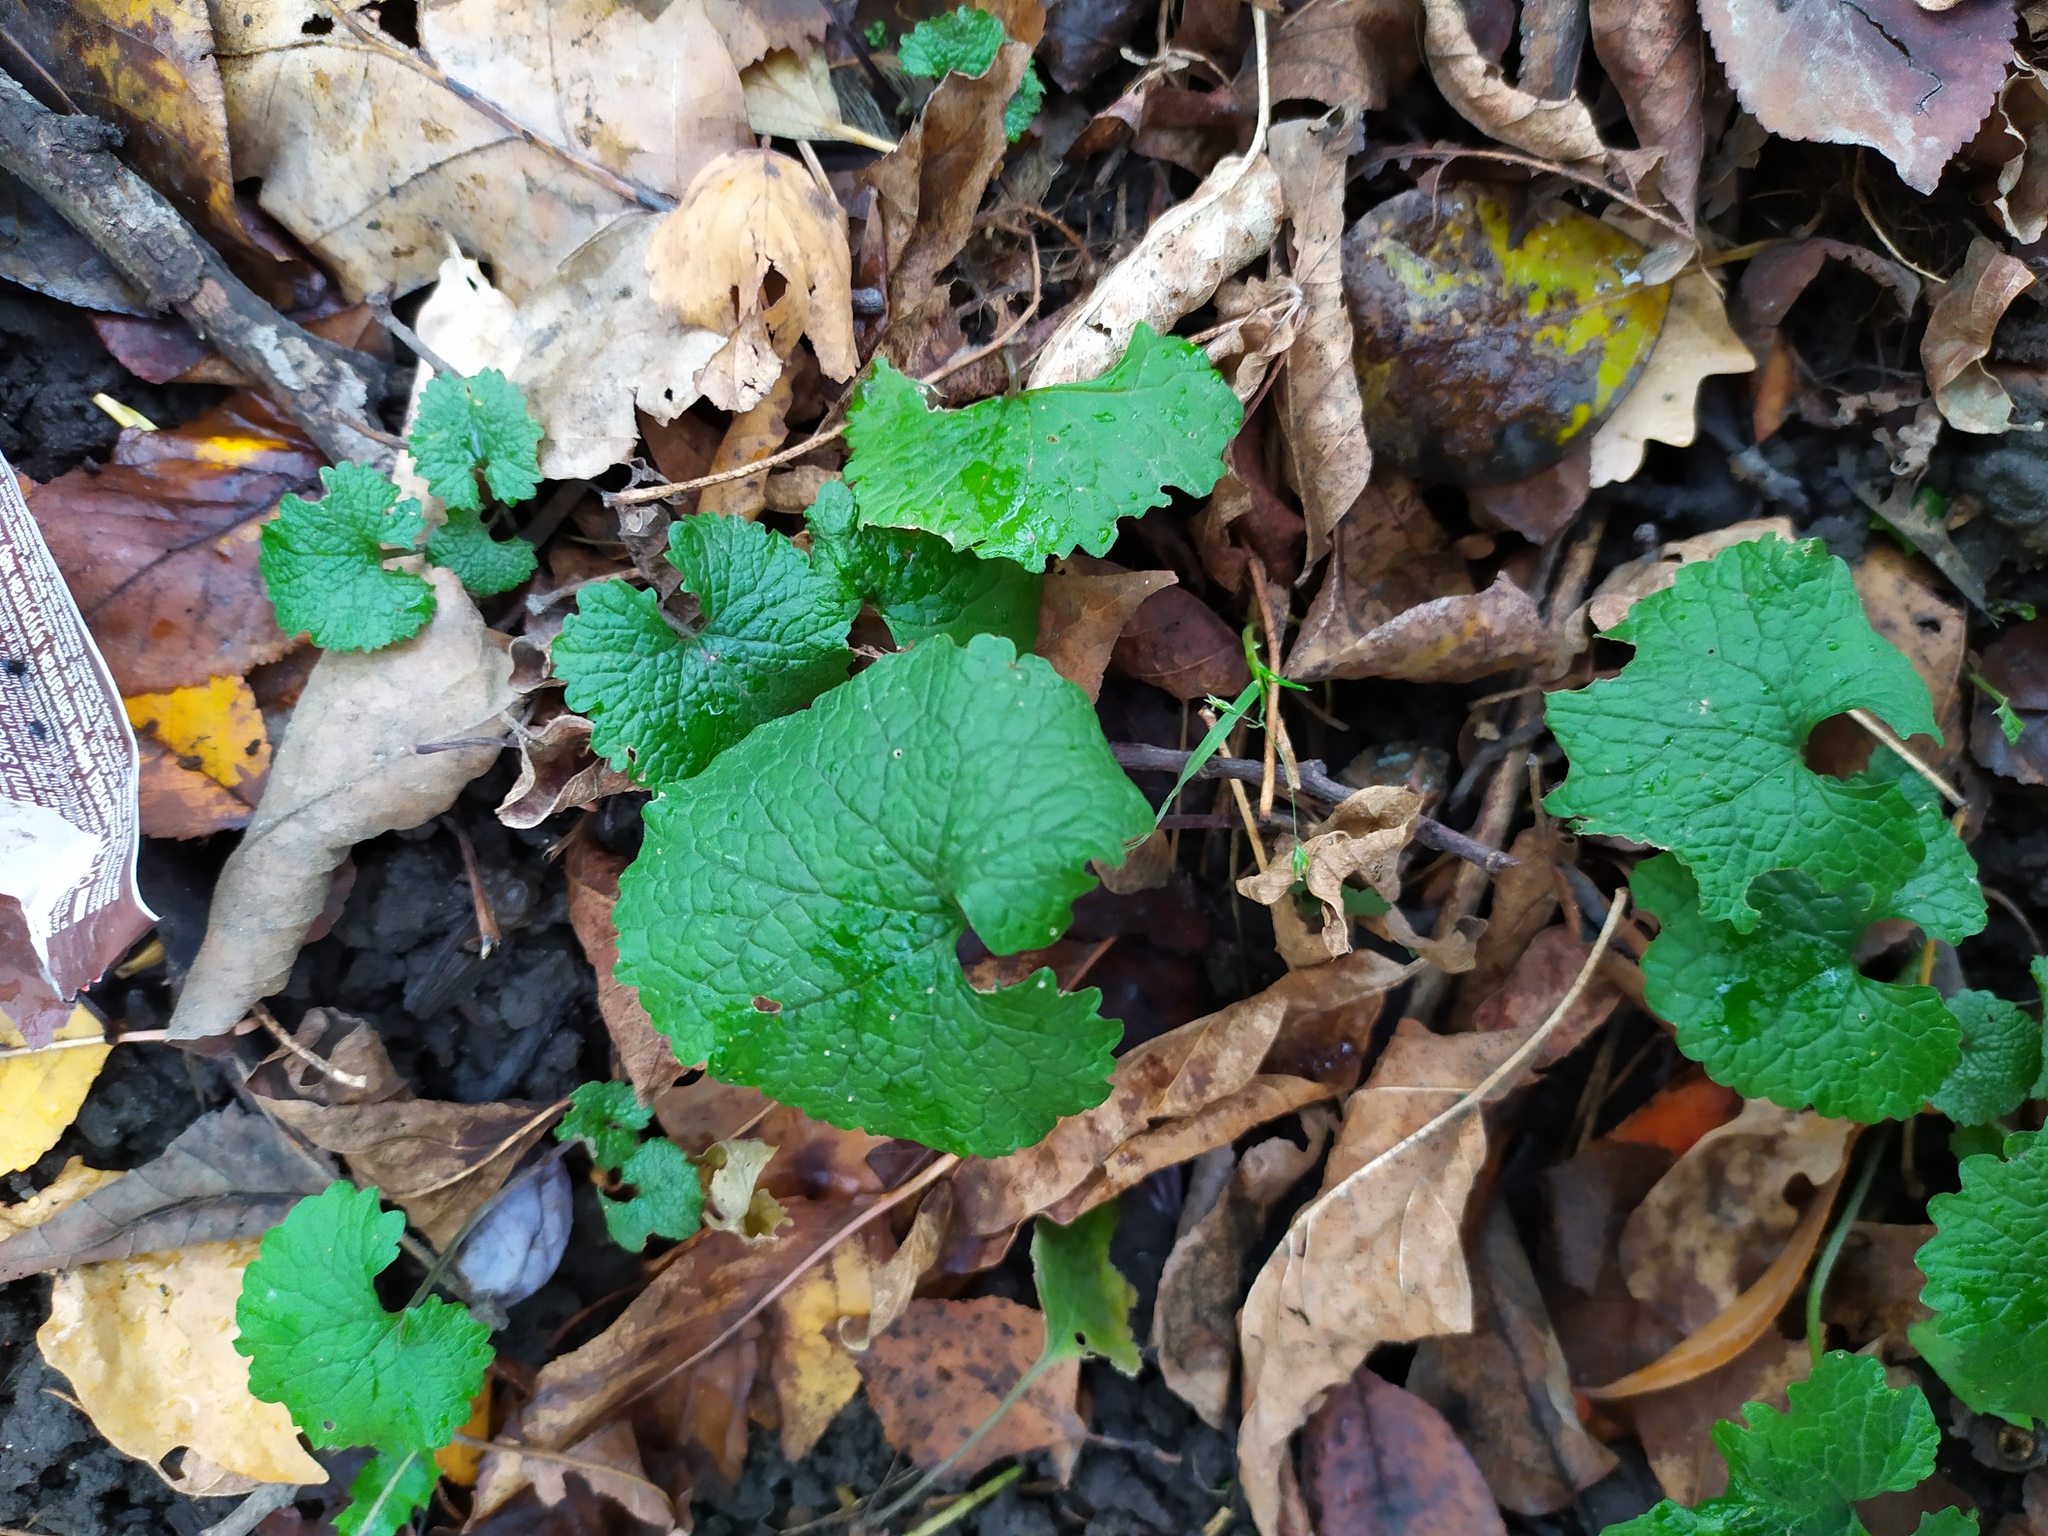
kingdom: Plantae
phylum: Tracheophyta
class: Magnoliopsida
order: Brassicales
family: Brassicaceae
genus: Alliaria
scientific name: Alliaria petiolata
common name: Garlic mustard
